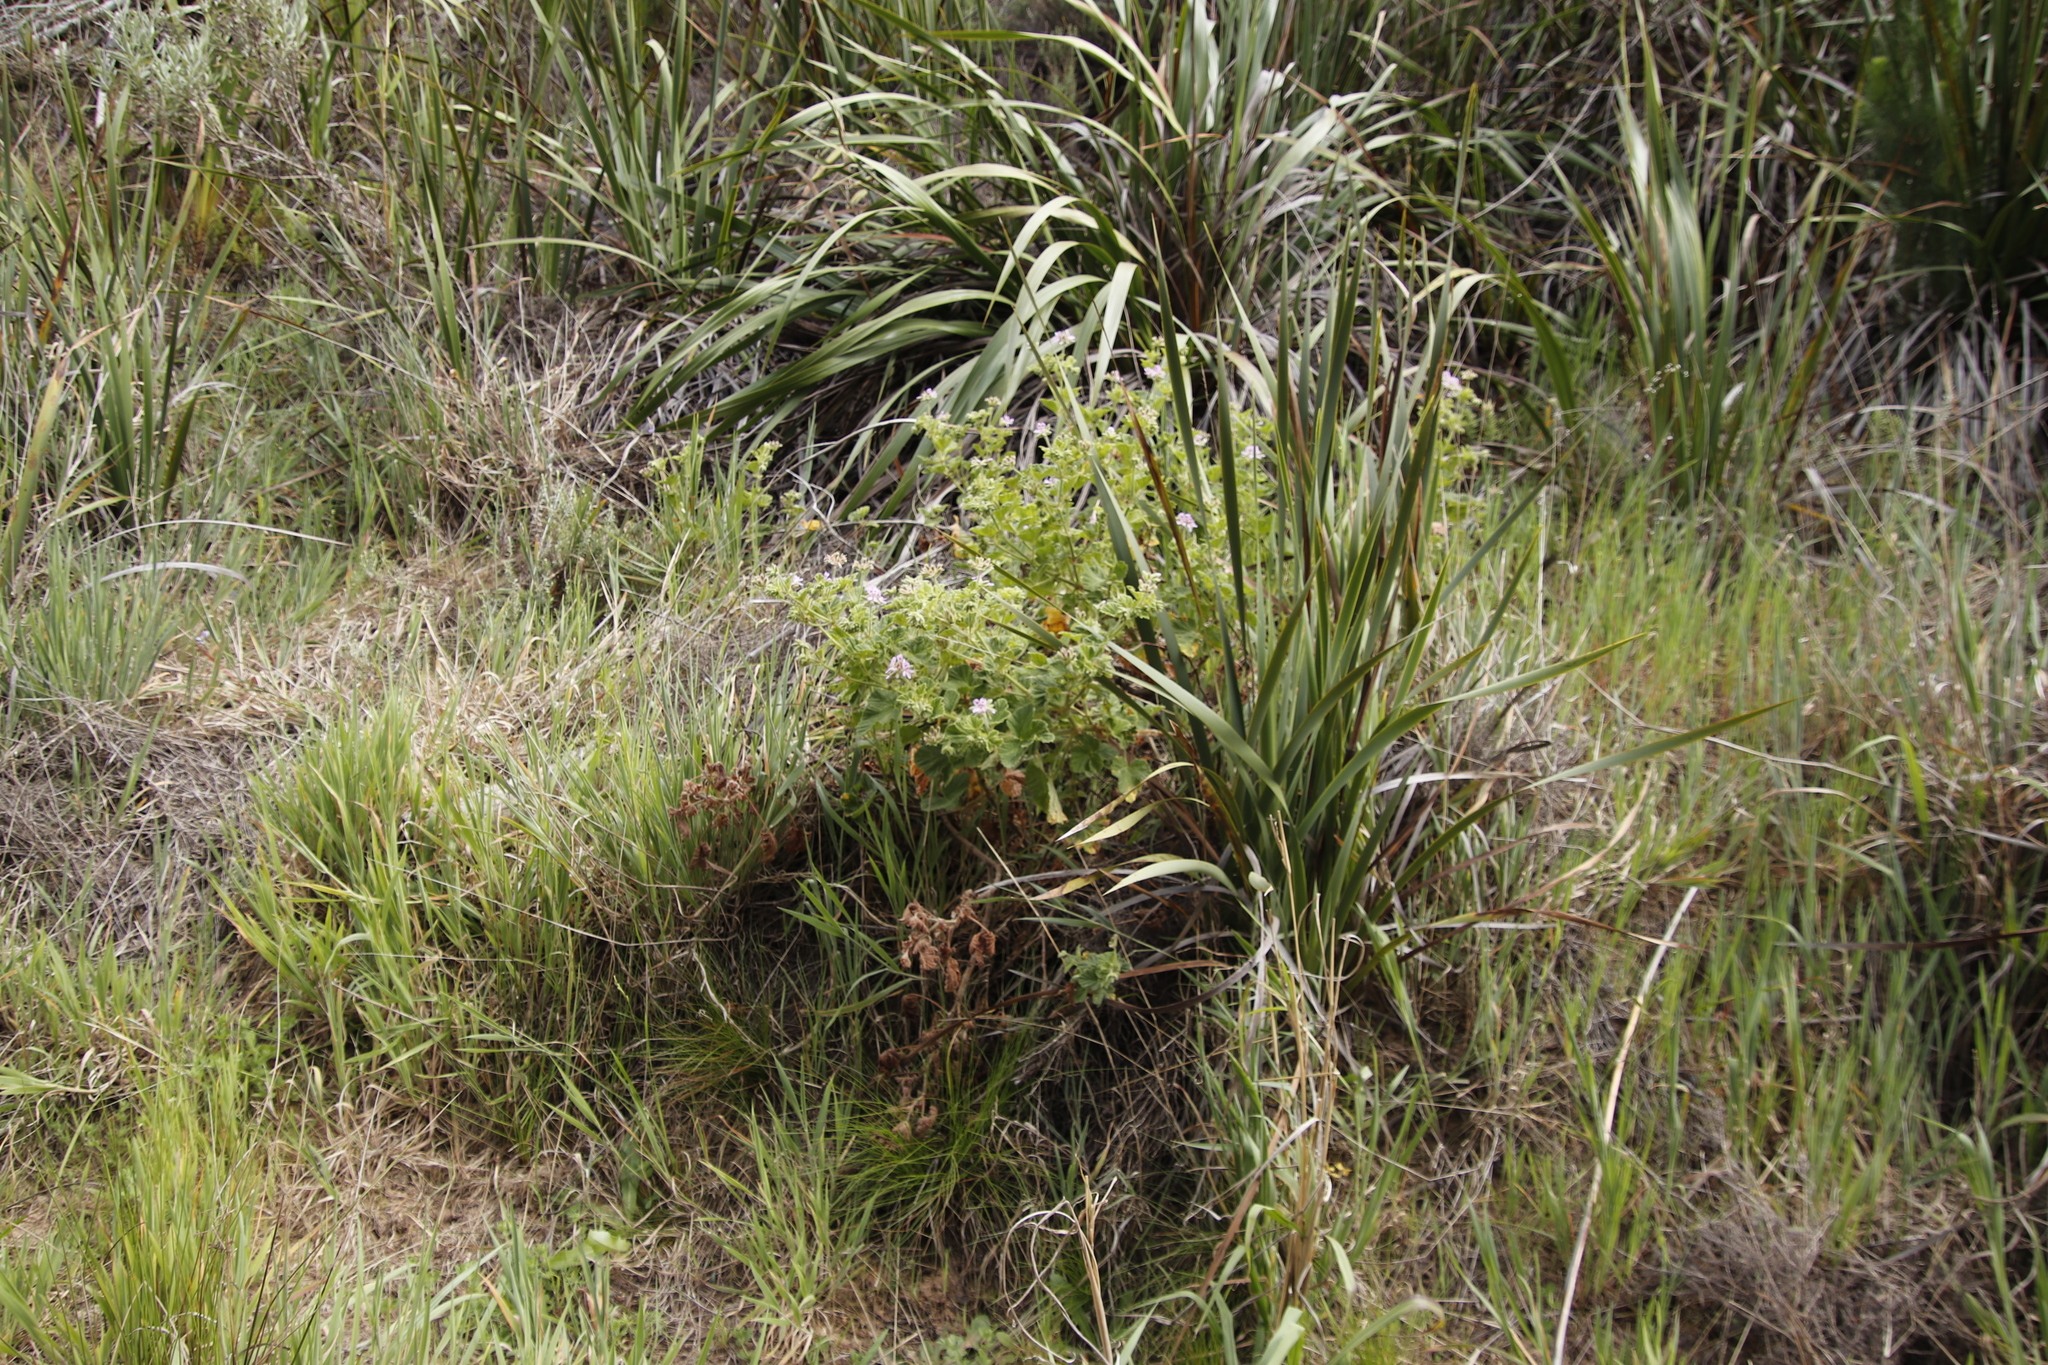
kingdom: Plantae
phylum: Tracheophyta
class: Magnoliopsida
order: Geraniales
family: Geraniaceae
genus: Pelargonium
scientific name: Pelargonium vitifolium
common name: Grapeleaf geranium
